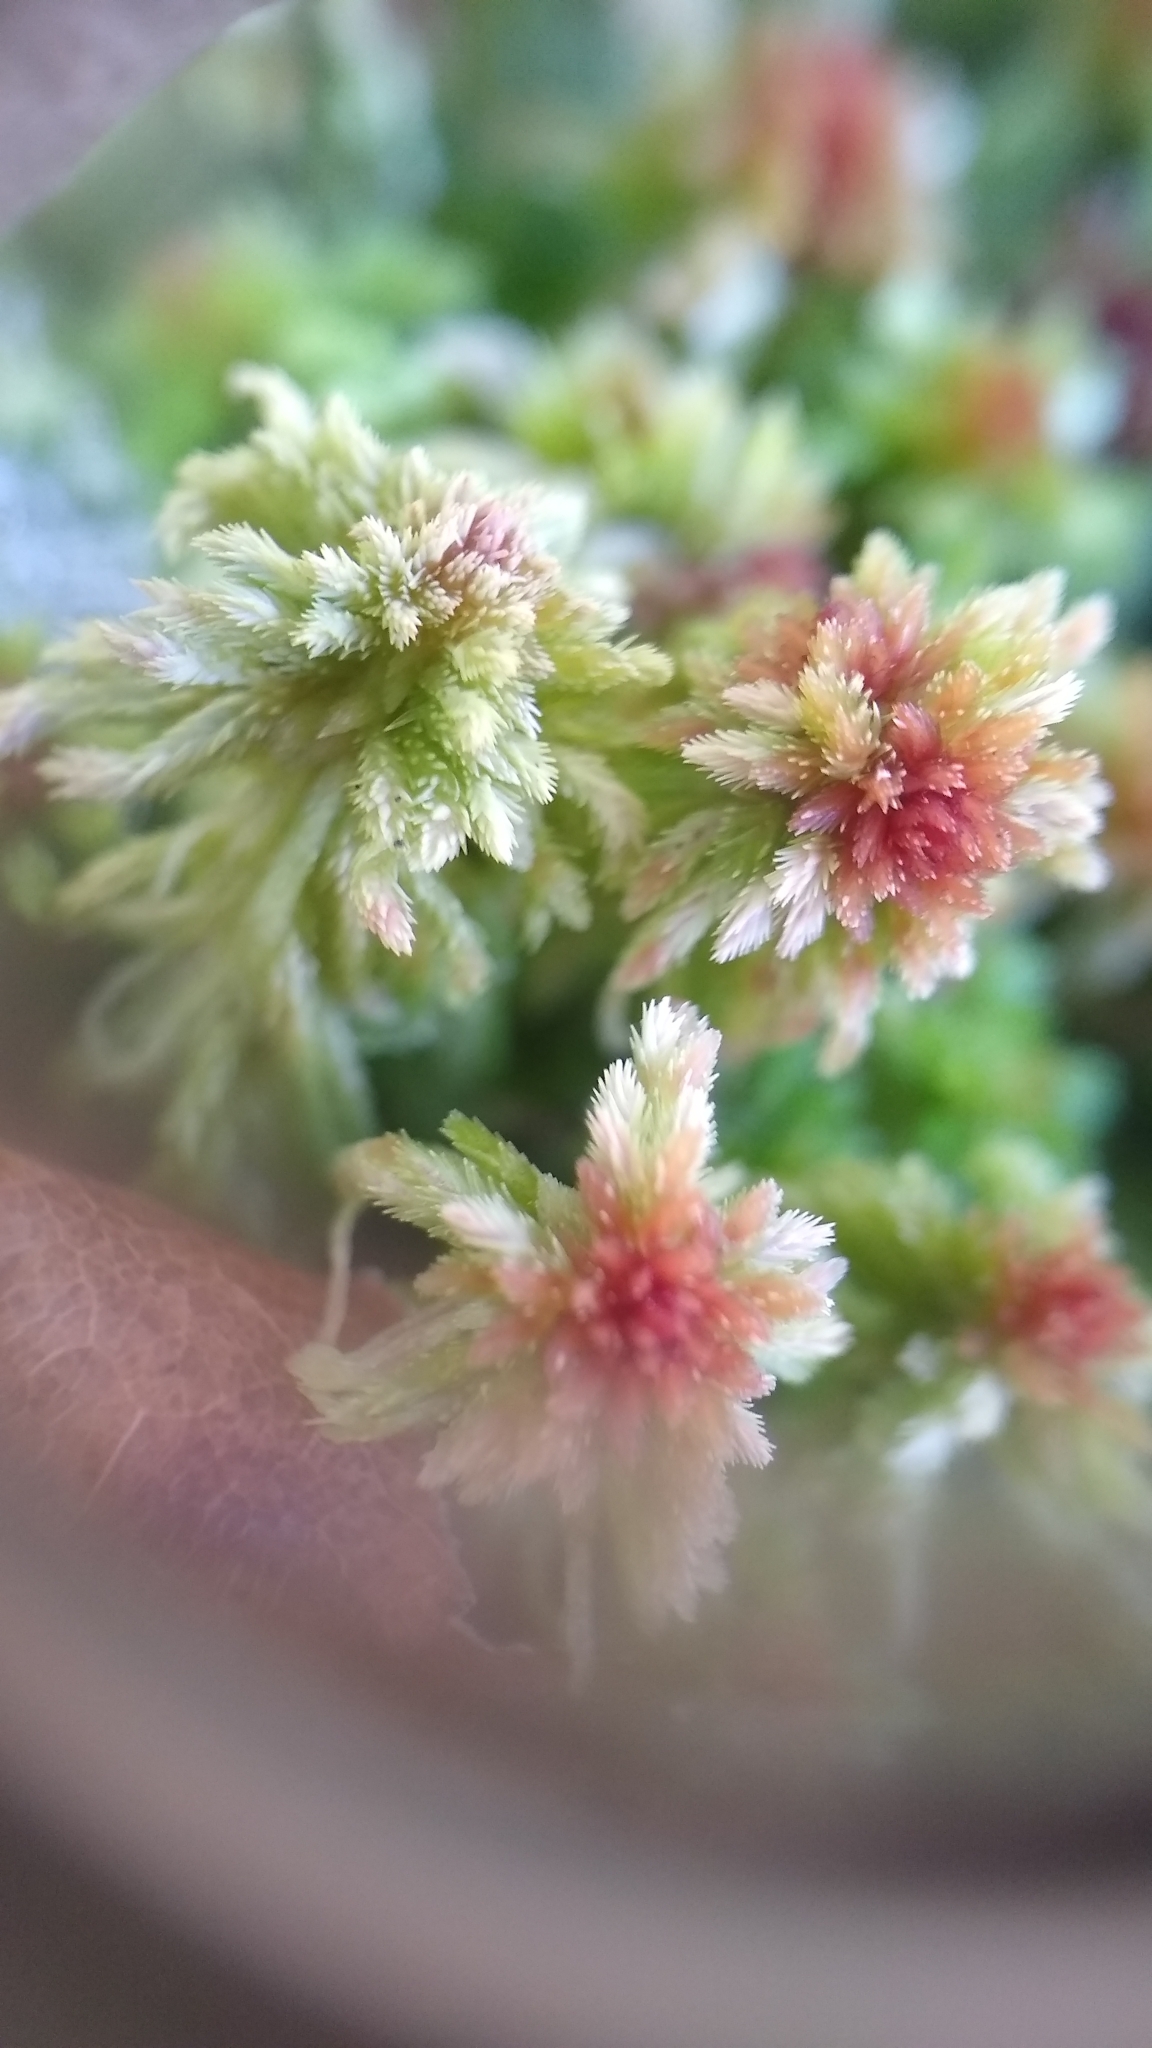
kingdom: Plantae
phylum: Bryophyta
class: Sphagnopsida
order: Sphagnales
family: Sphagnaceae
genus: Sphagnum
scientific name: Sphagnum russowii
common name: Russow's peat moss
